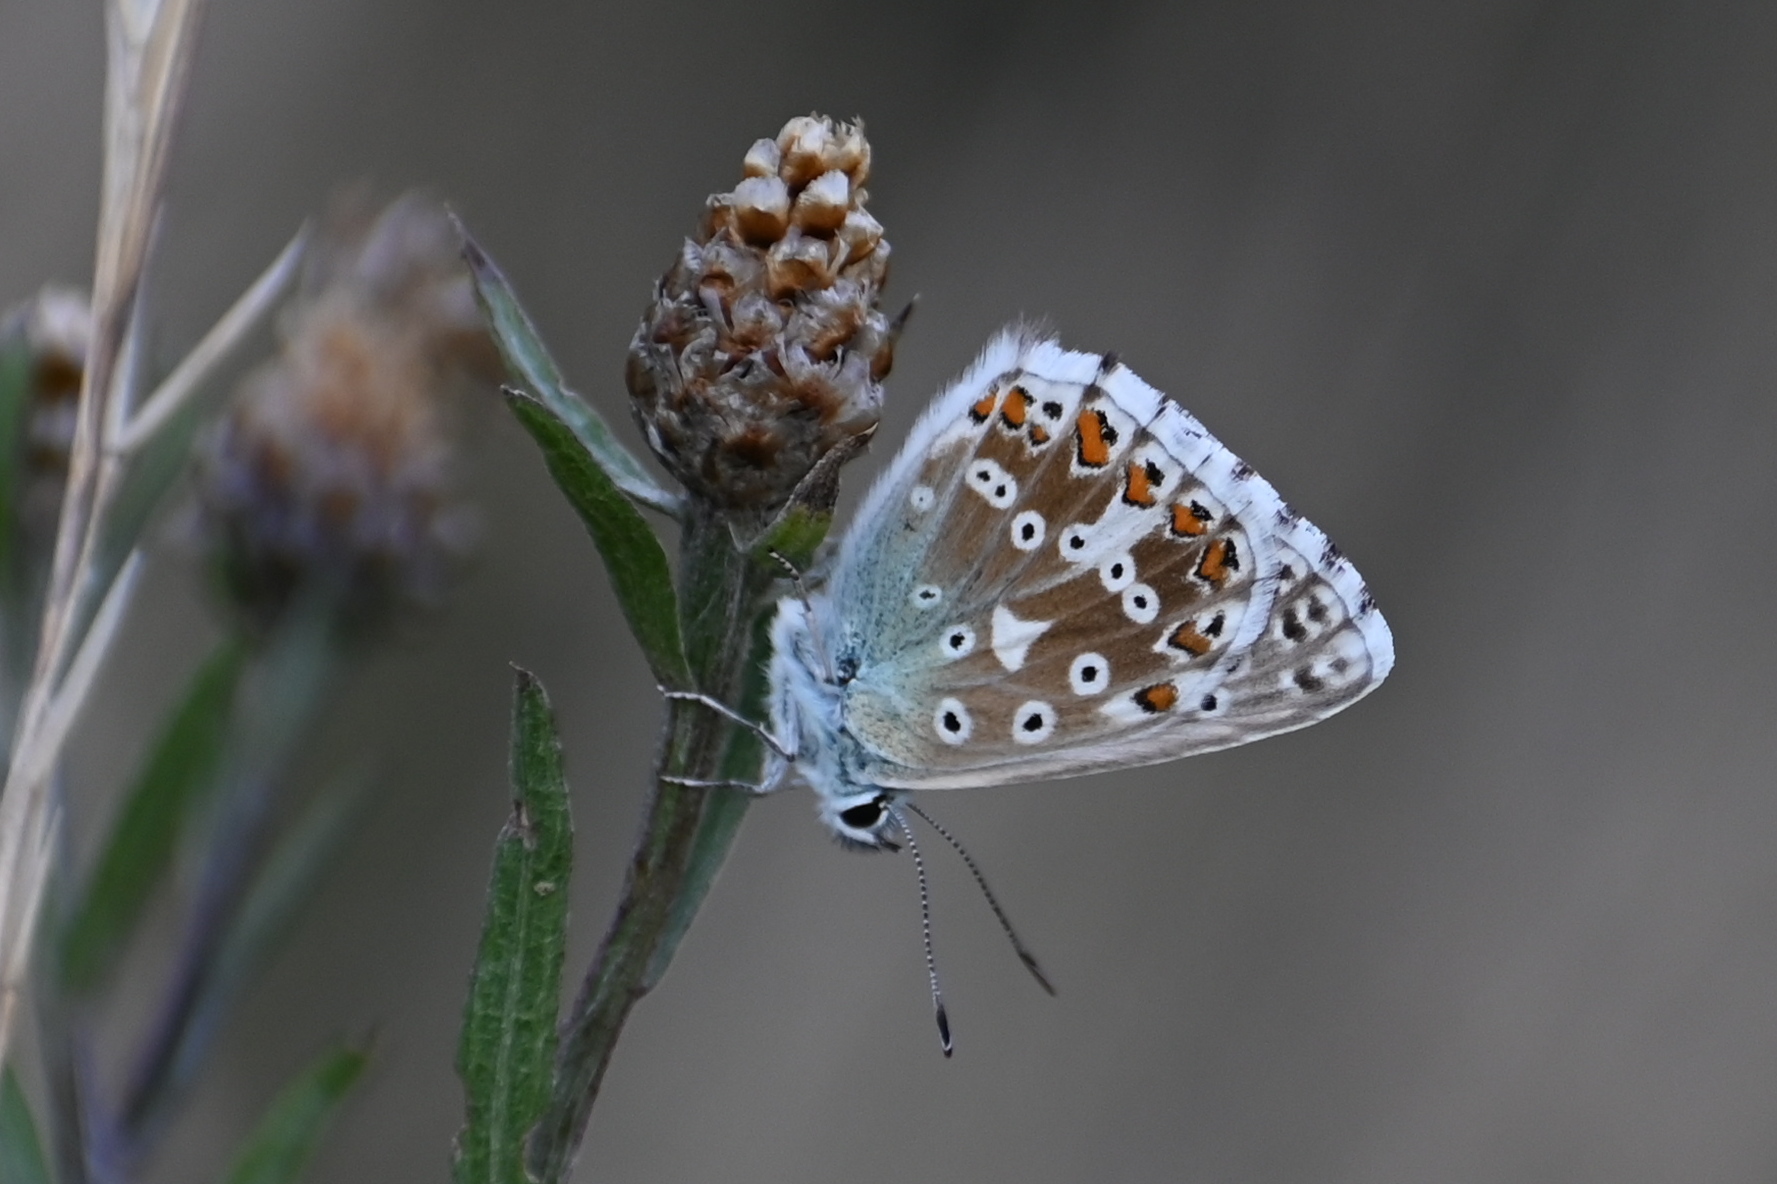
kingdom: Animalia
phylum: Arthropoda
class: Insecta
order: Lepidoptera
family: Lycaenidae
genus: Lysandra
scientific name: Lysandra coridon
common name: Chalkhill blue
